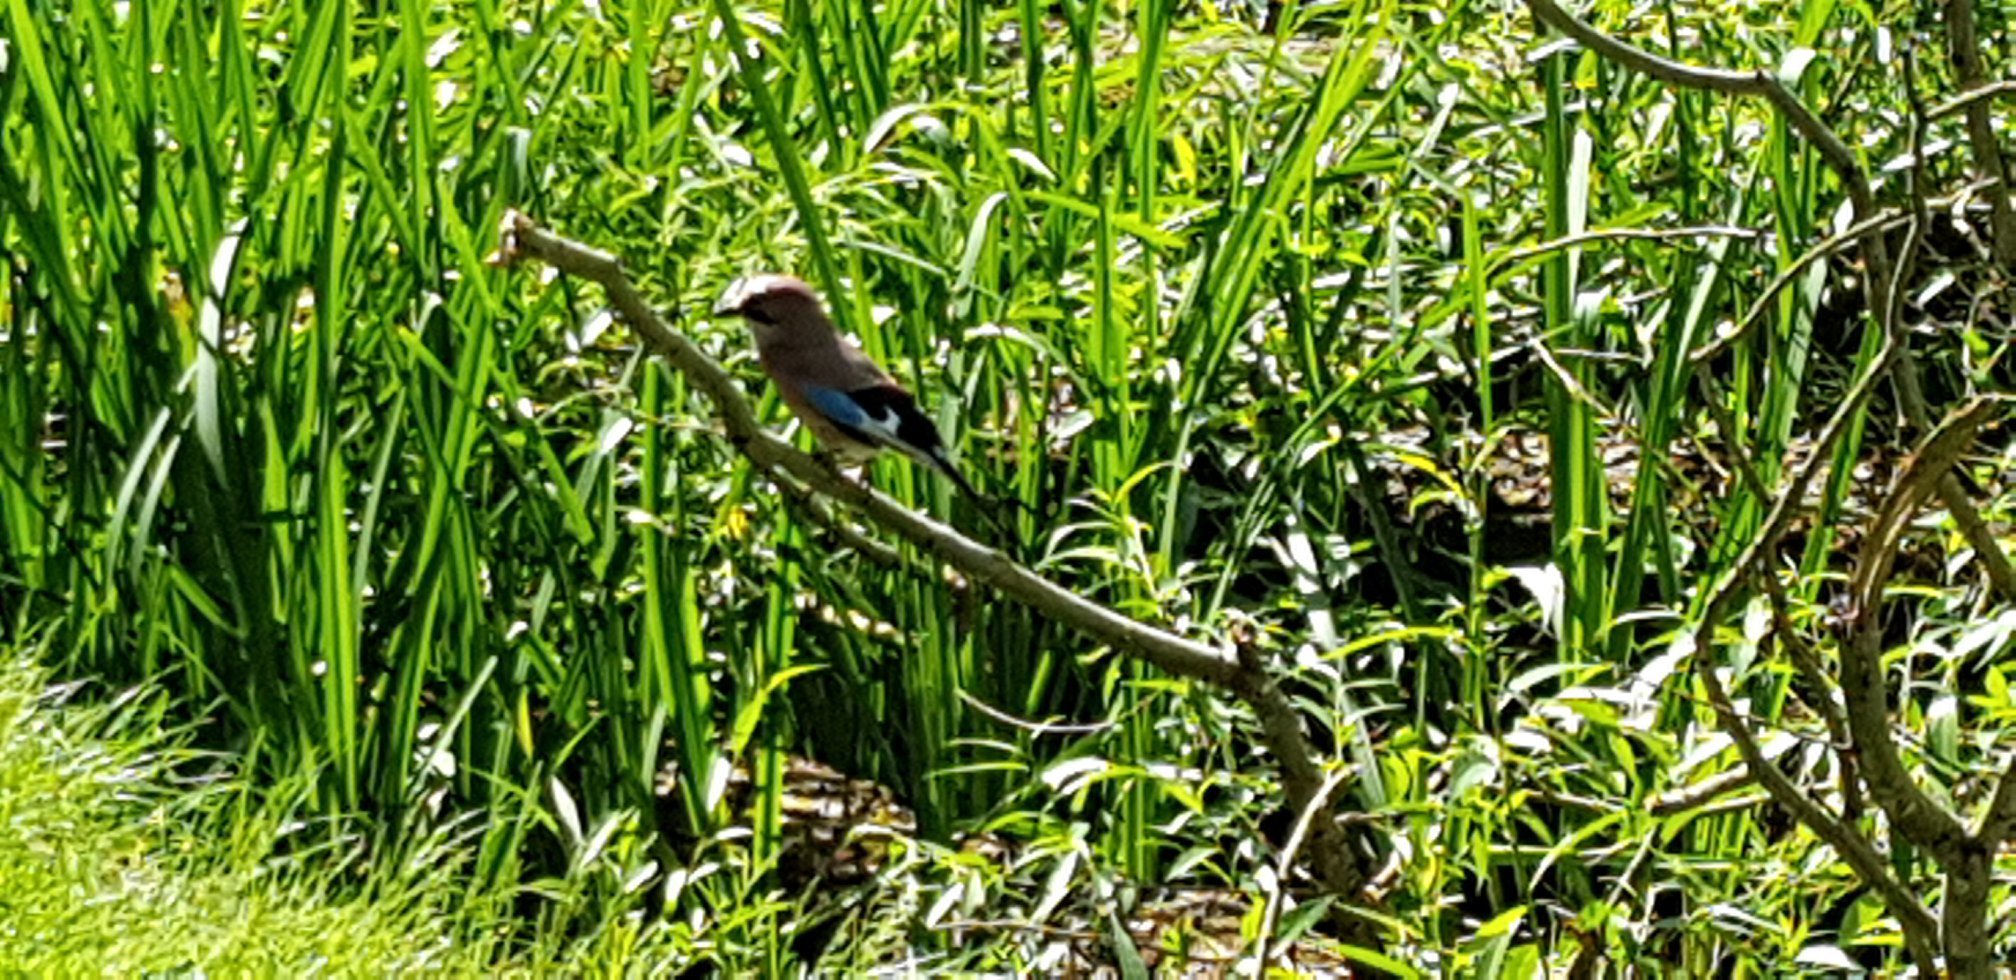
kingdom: Animalia
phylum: Chordata
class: Aves
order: Passeriformes
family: Corvidae
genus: Garrulus
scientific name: Garrulus glandarius
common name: Eurasian jay
